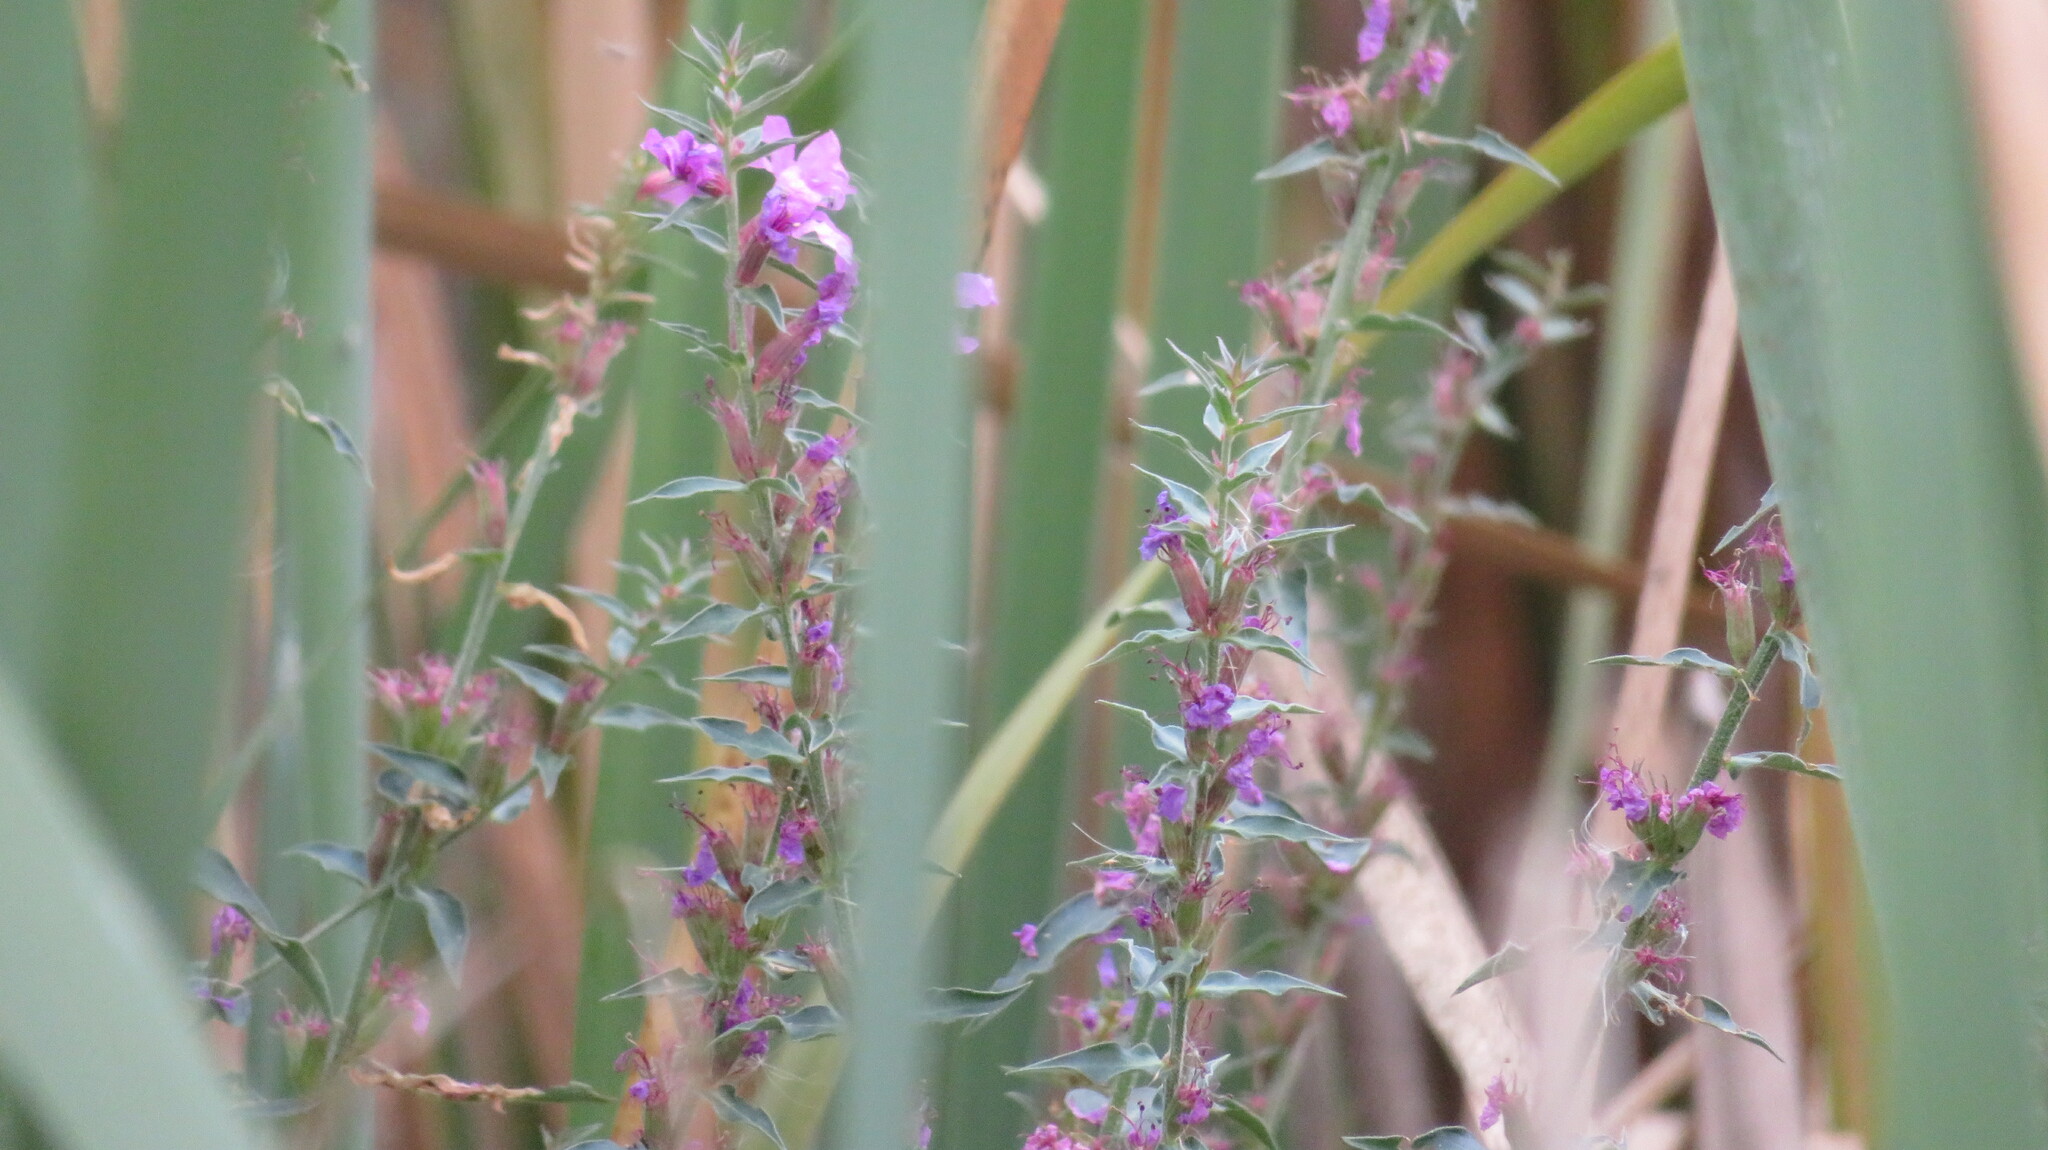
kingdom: Plantae
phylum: Tracheophyta
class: Magnoliopsida
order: Myrtales
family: Lythraceae
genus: Lythrum
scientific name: Lythrum salicaria
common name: Purple loosestrife
